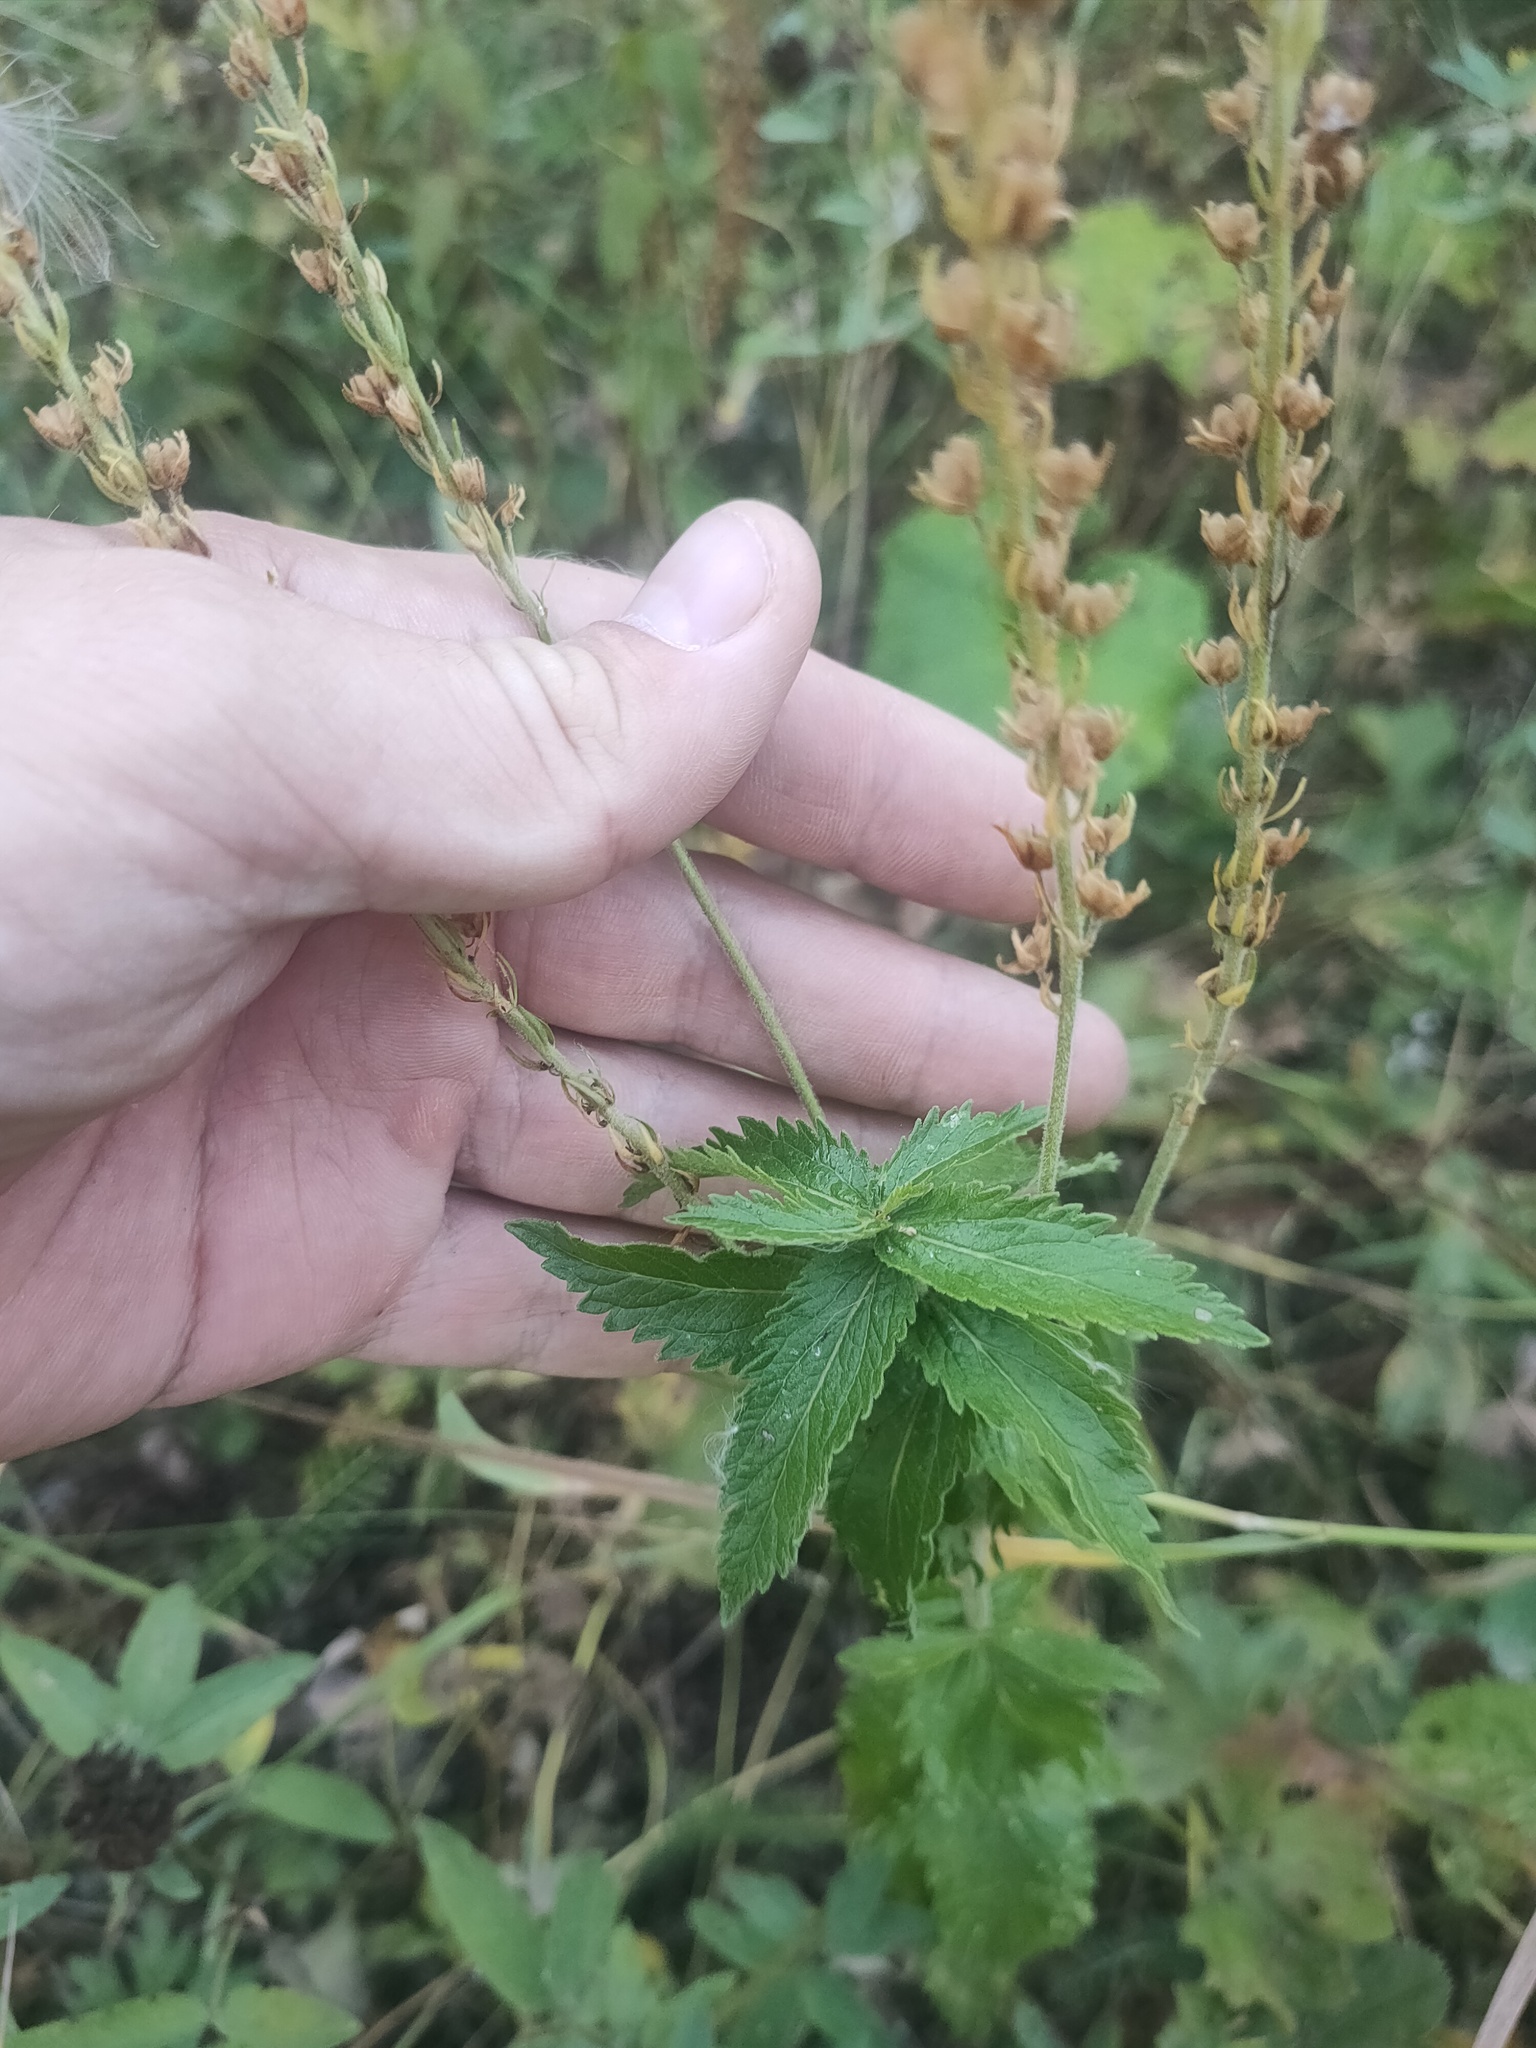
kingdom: Plantae
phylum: Tracheophyta
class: Magnoliopsida
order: Lamiales
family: Plantaginaceae
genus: Veronica
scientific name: Veronica teucrium
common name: Large speedwell
